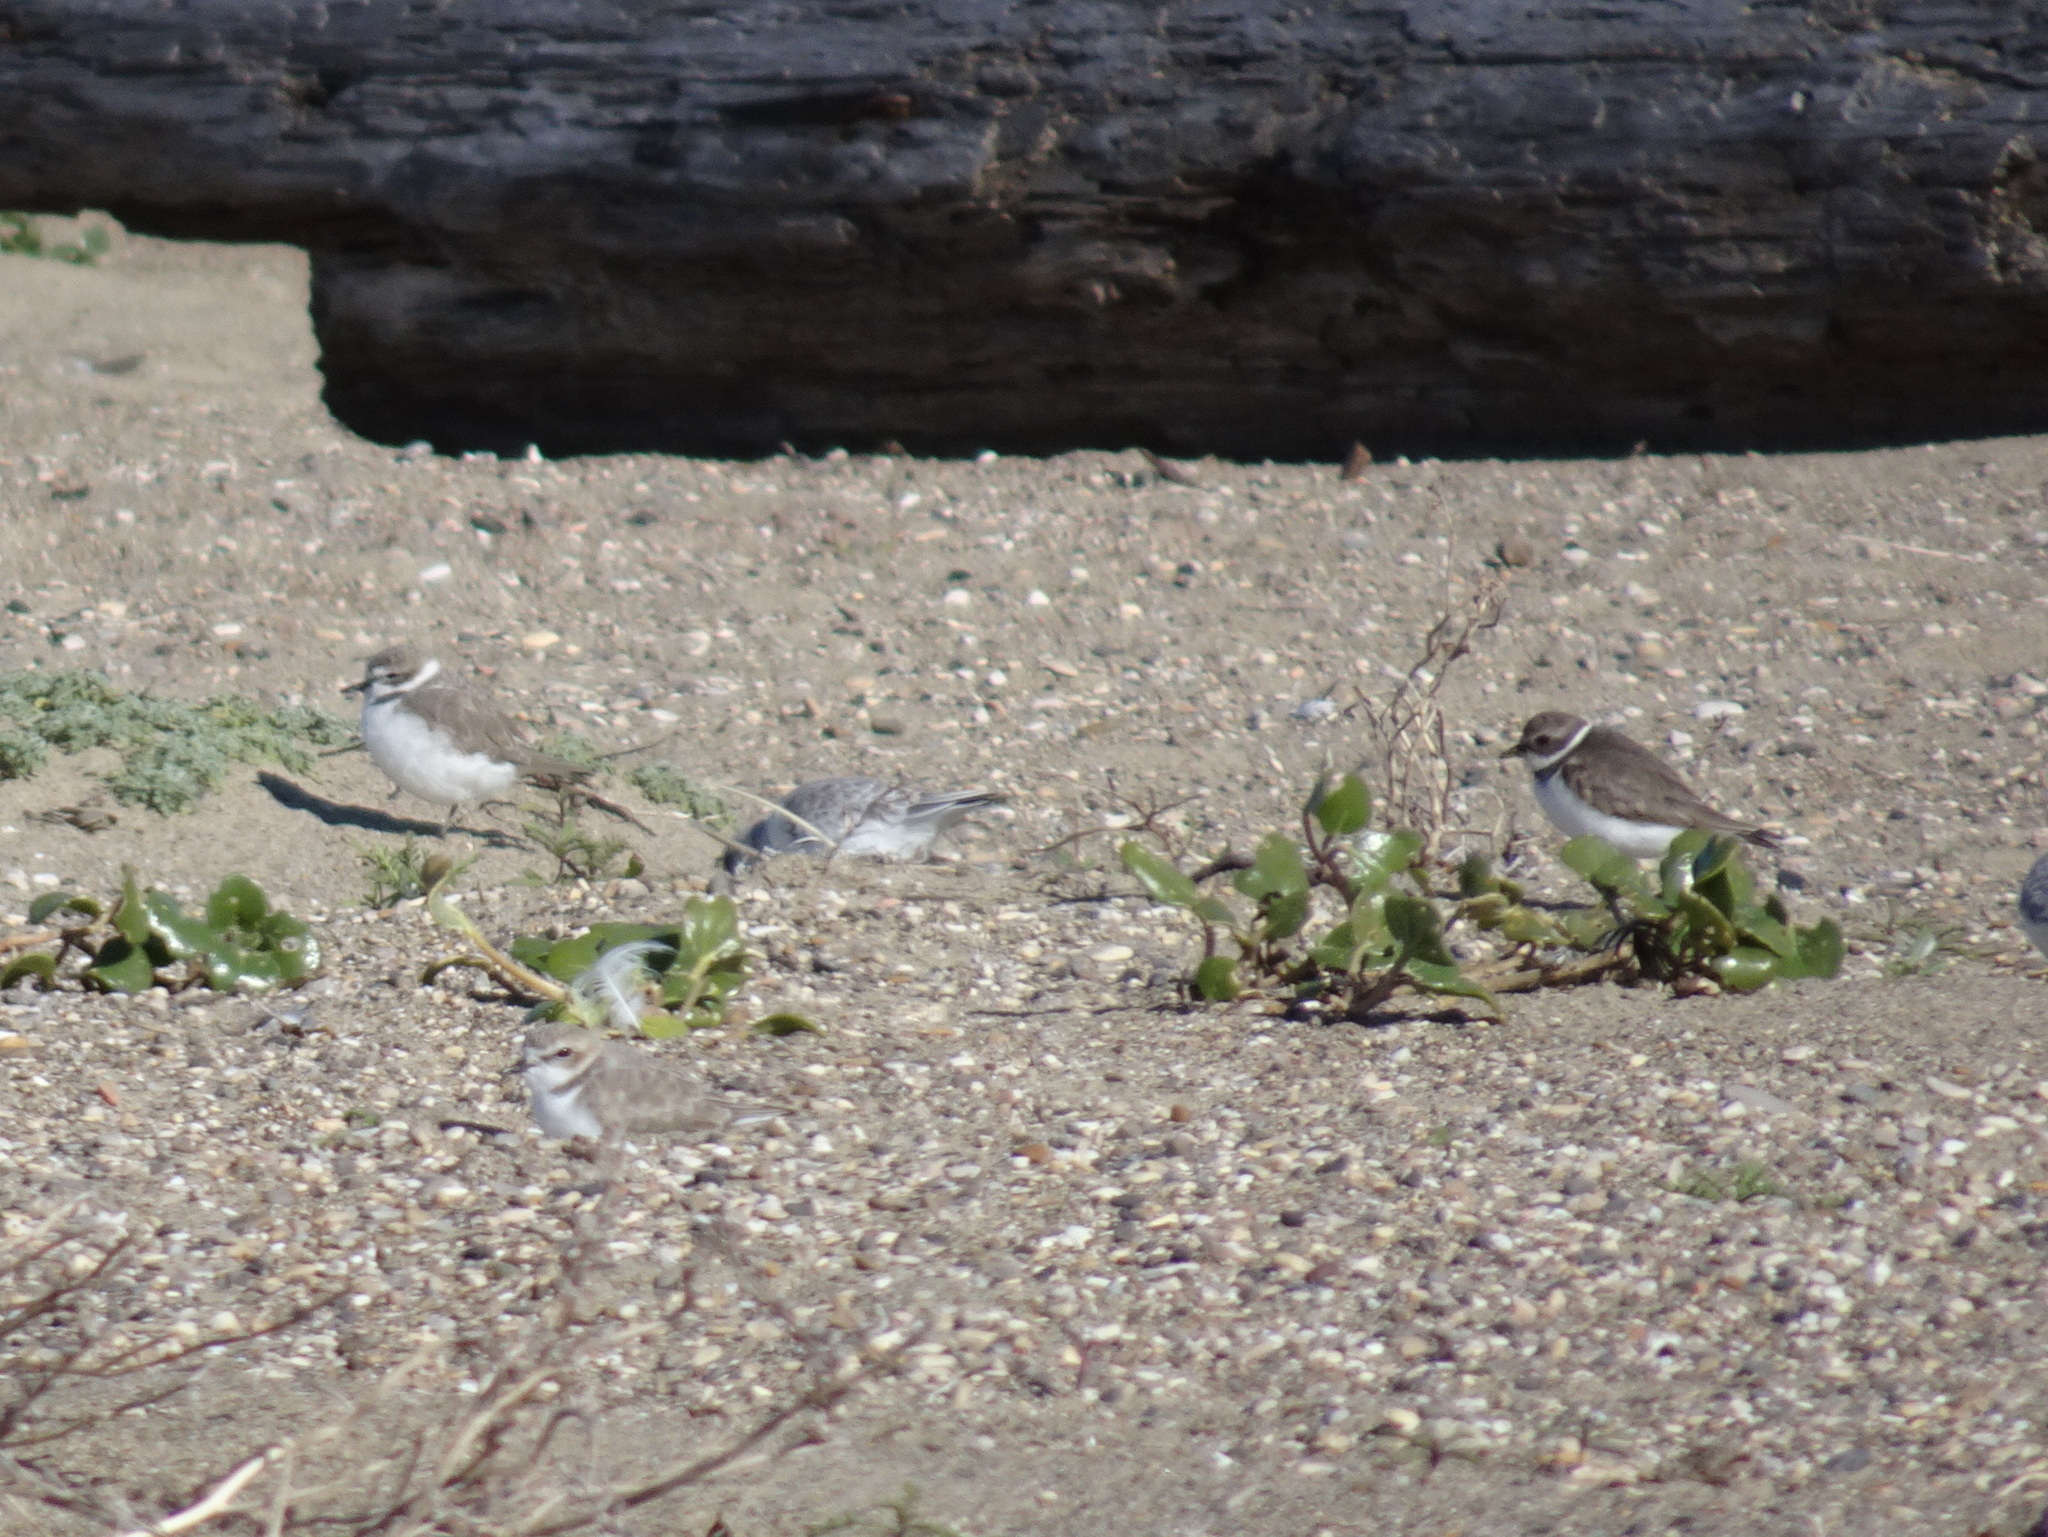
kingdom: Animalia
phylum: Chordata
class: Aves
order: Charadriiformes
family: Charadriidae
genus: Charadrius
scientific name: Charadrius semipalmatus
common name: Semipalmated plover
